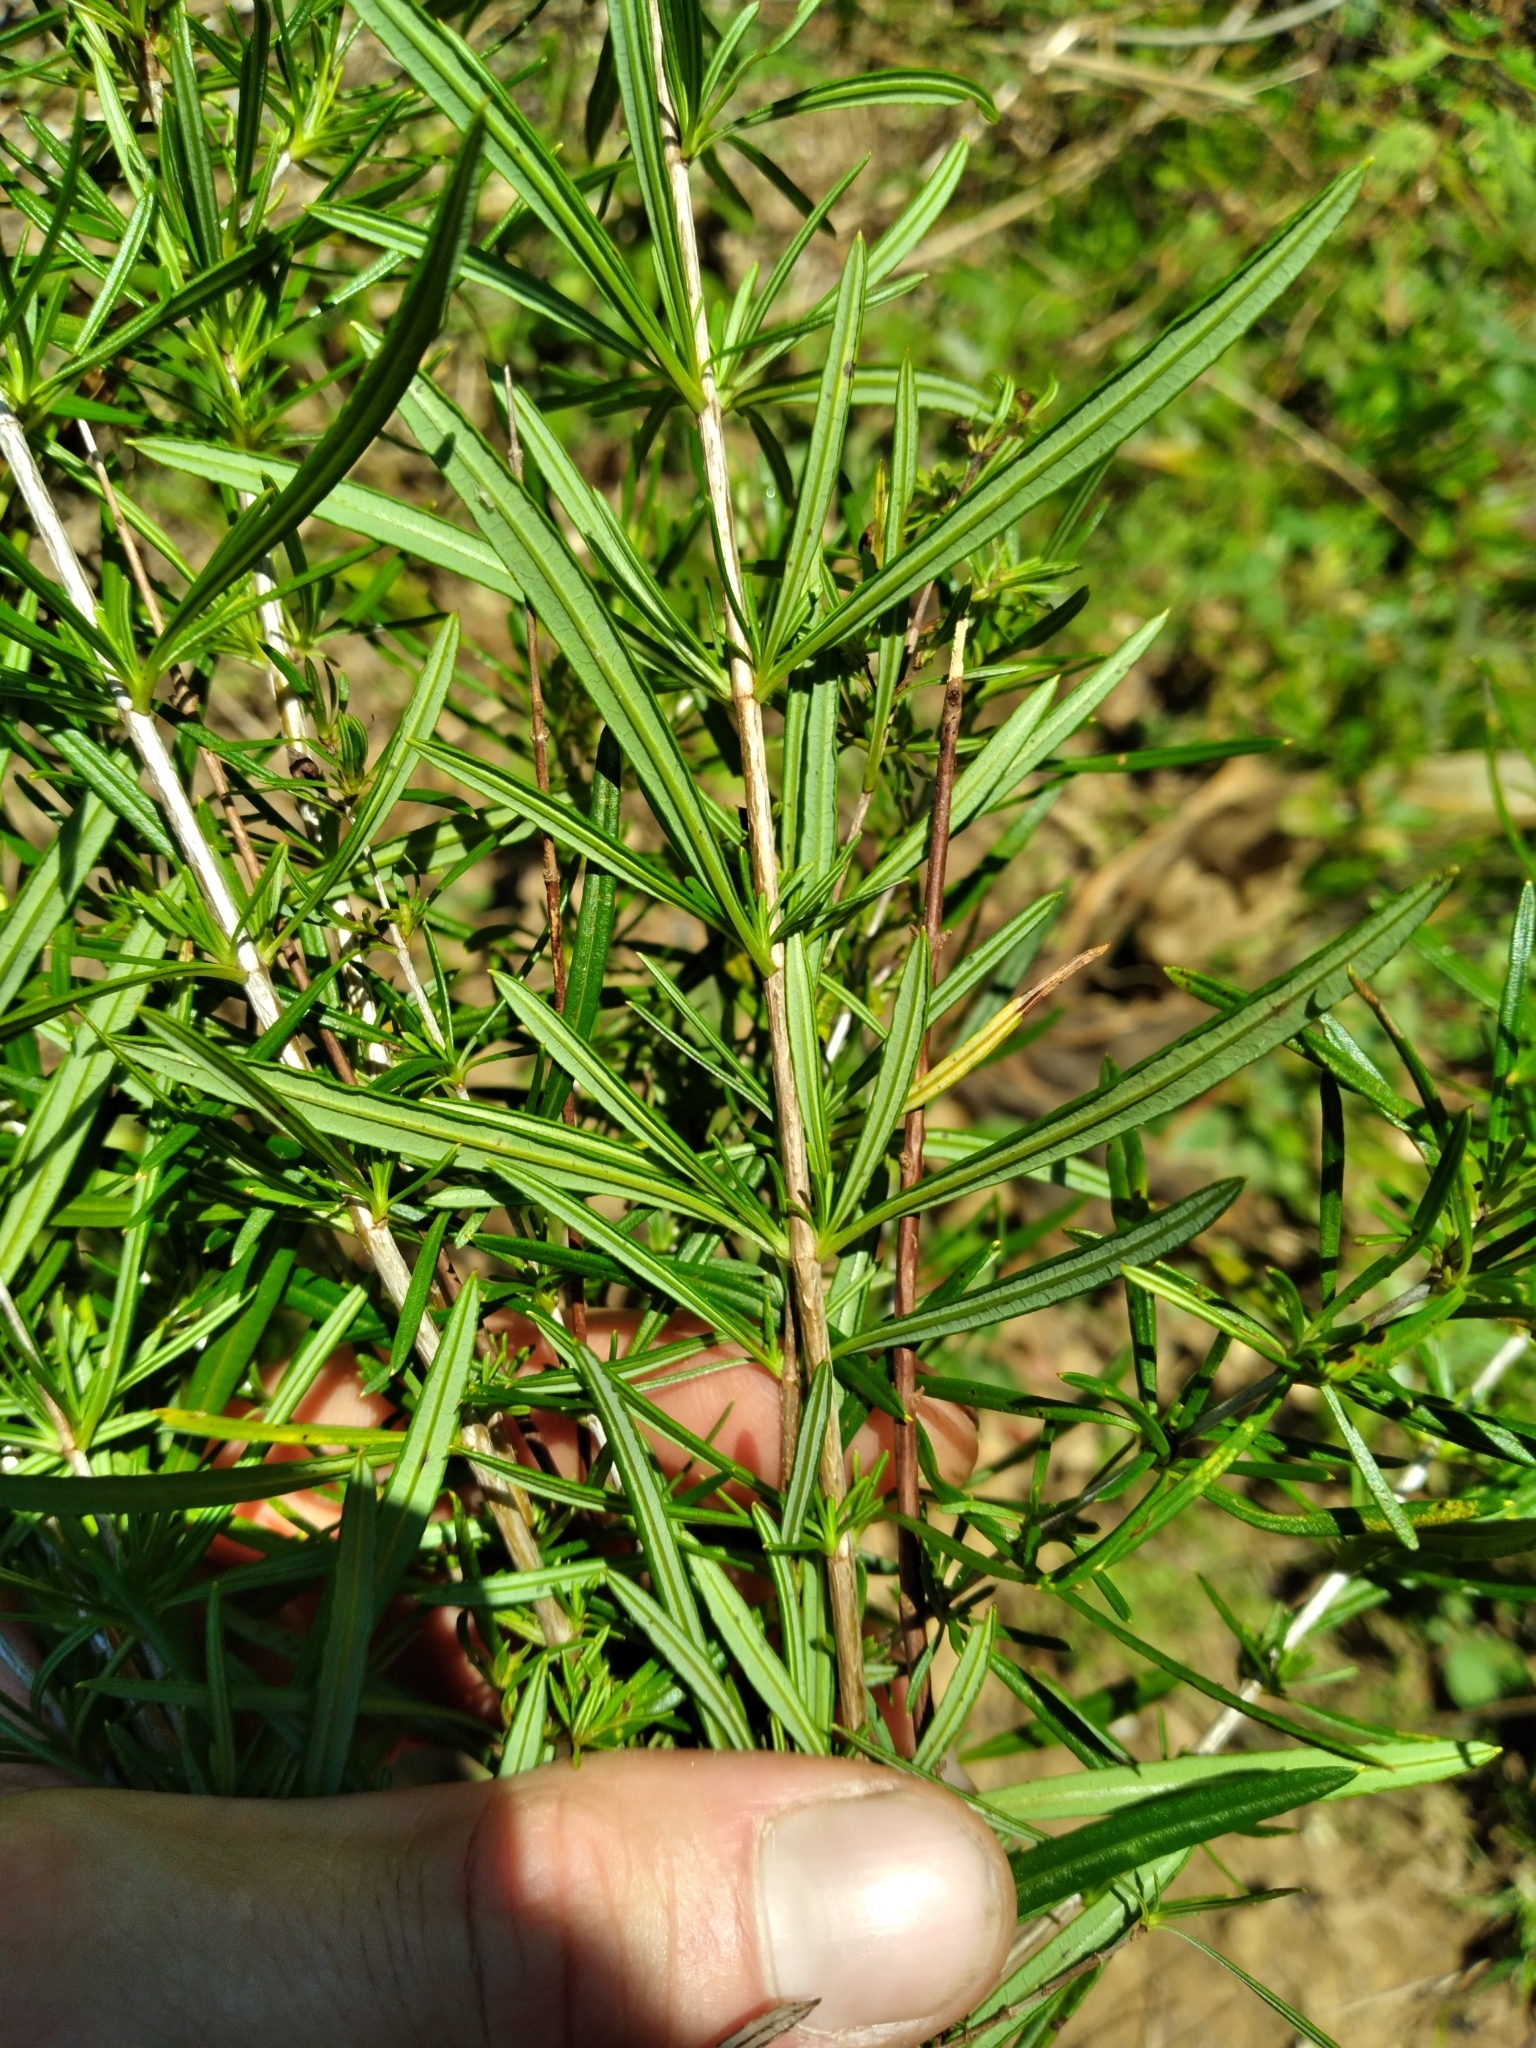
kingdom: Plantae
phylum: Tracheophyta
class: Magnoliopsida
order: Malpighiales
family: Hypericaceae
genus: Hypericum
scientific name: Hypericum densiflorum
